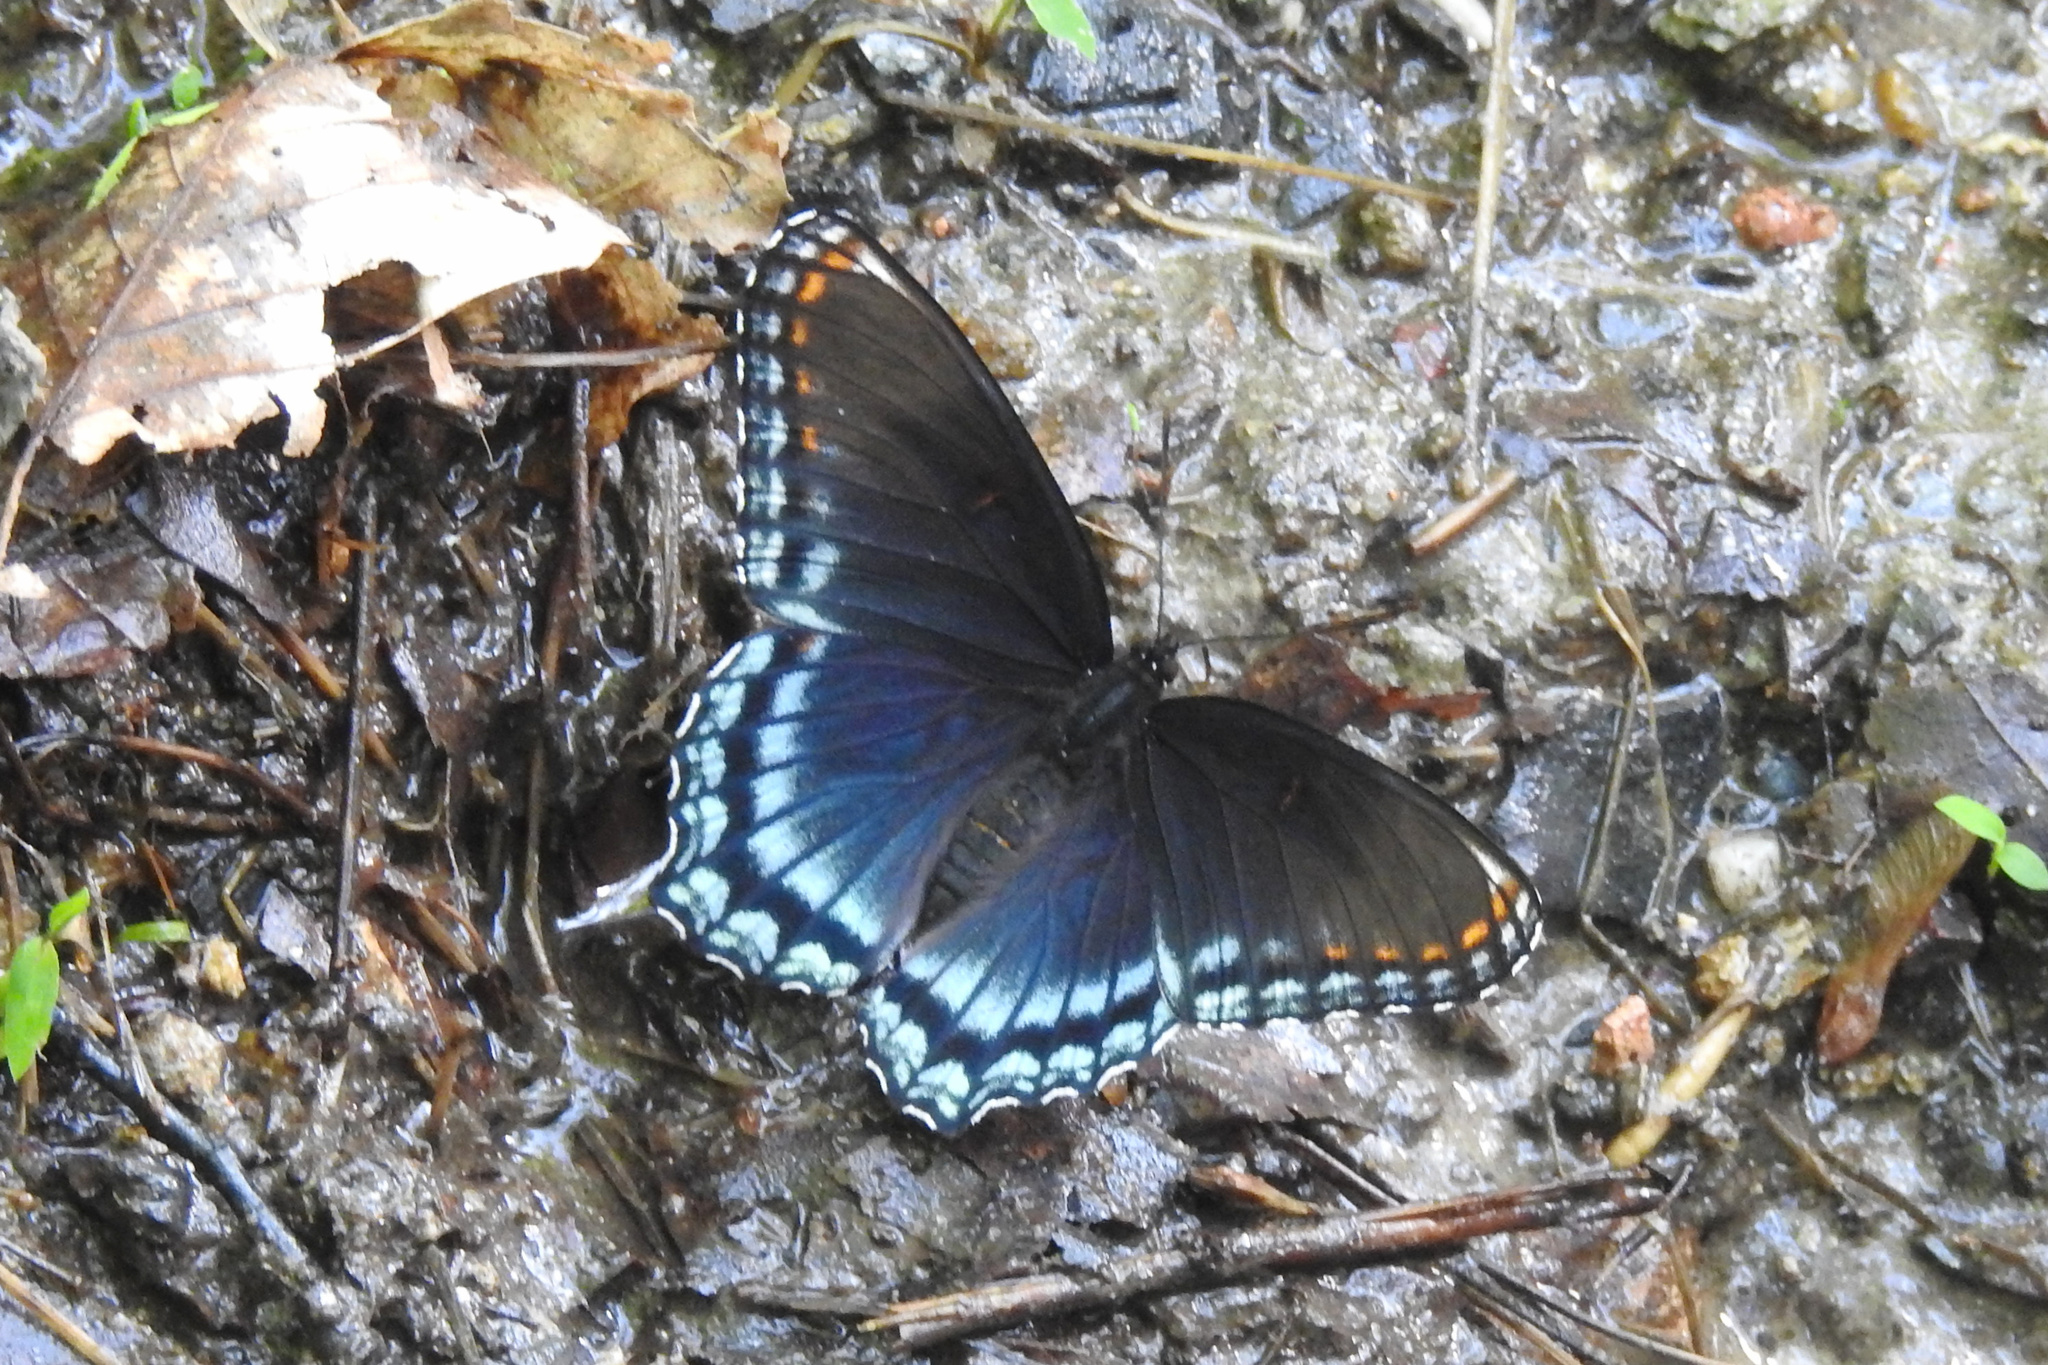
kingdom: Animalia
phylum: Arthropoda
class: Insecta
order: Lepidoptera
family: Nymphalidae
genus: Limenitis
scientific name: Limenitis astyanax
